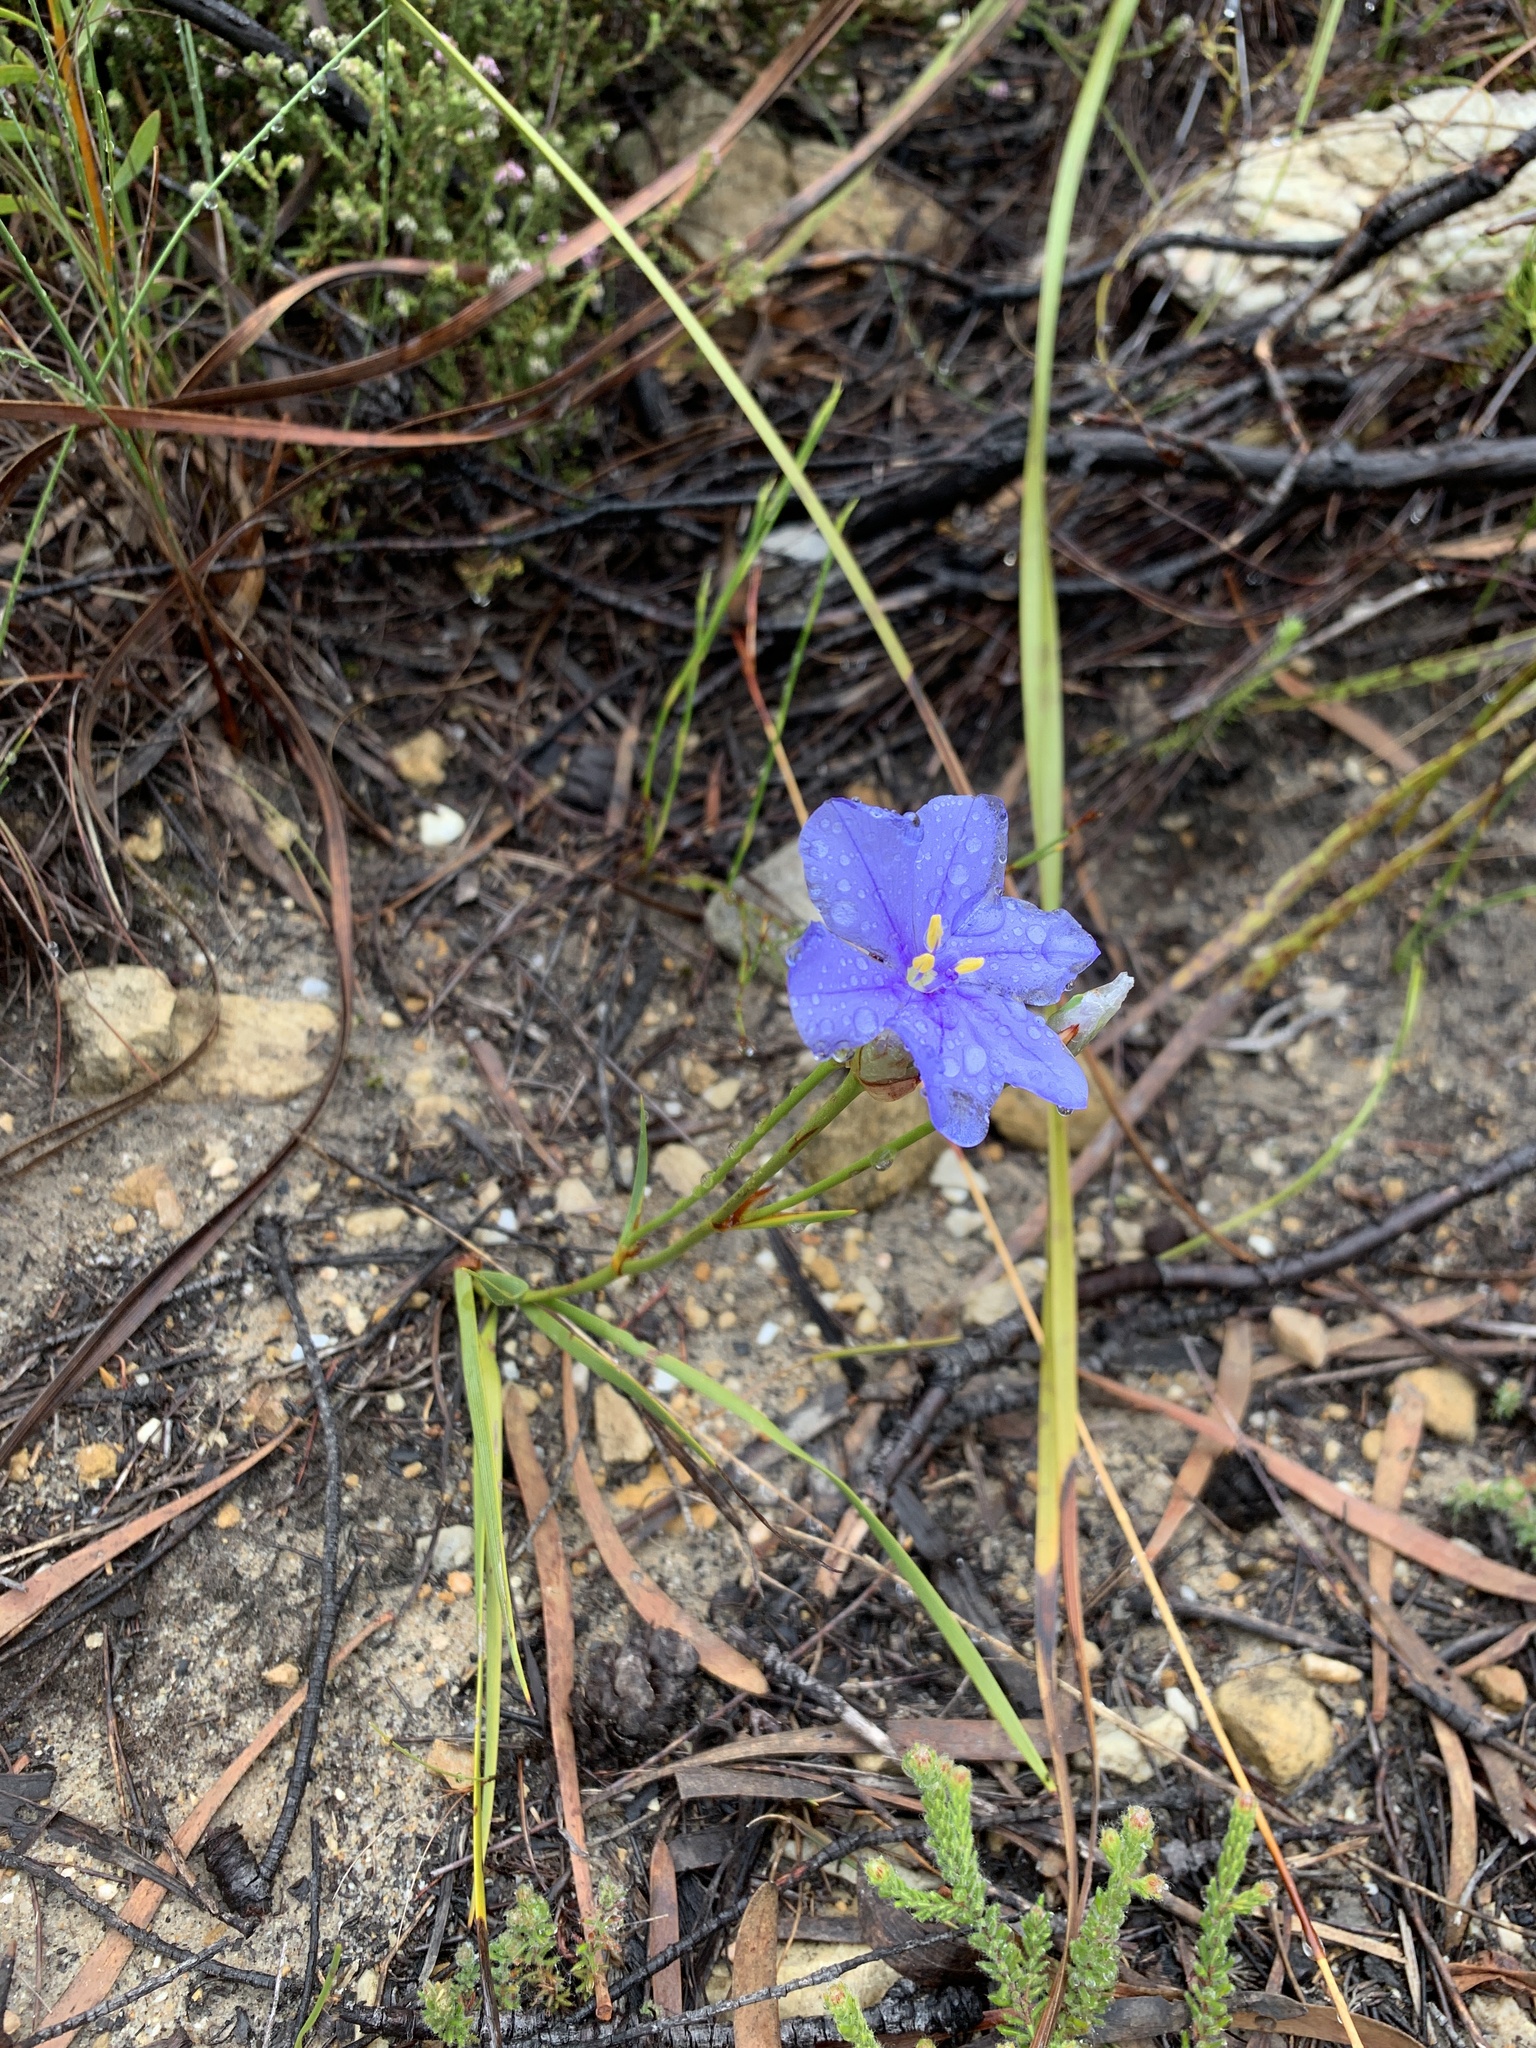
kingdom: Plantae
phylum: Tracheophyta
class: Liliopsida
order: Asparagales
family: Iridaceae
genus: Aristea
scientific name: Aristea africana
